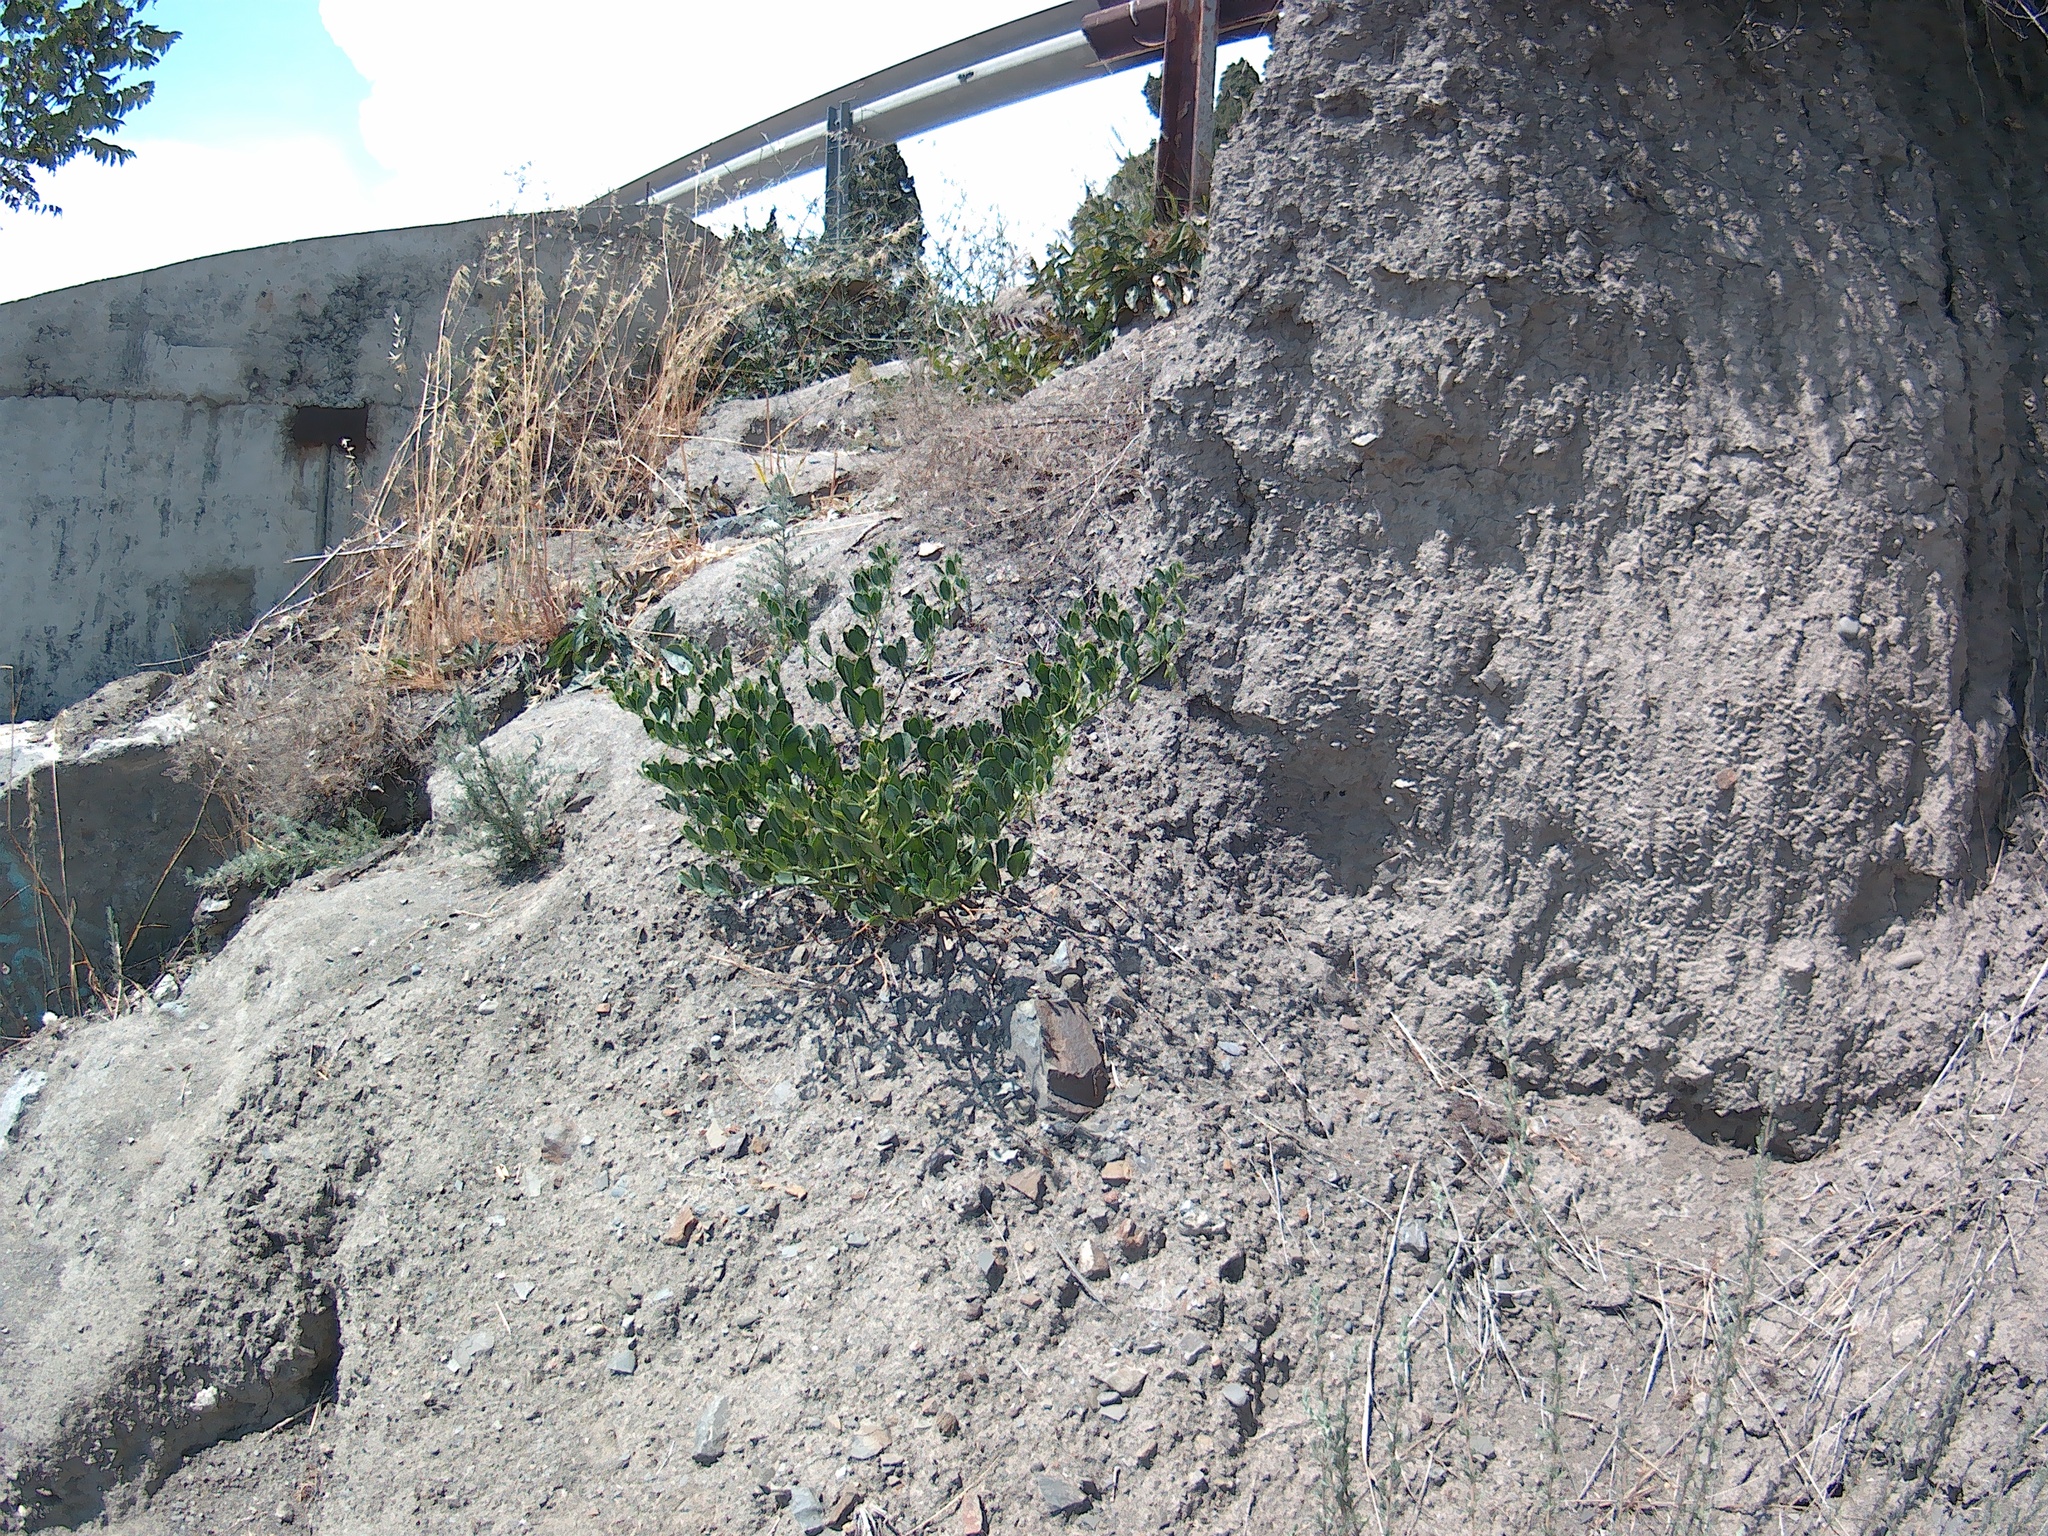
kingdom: Plantae
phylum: Tracheophyta
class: Magnoliopsida
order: Zygophyllales
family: Zygophyllaceae
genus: Zygophyllum
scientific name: Zygophyllum fabago
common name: Syrian beancaper
